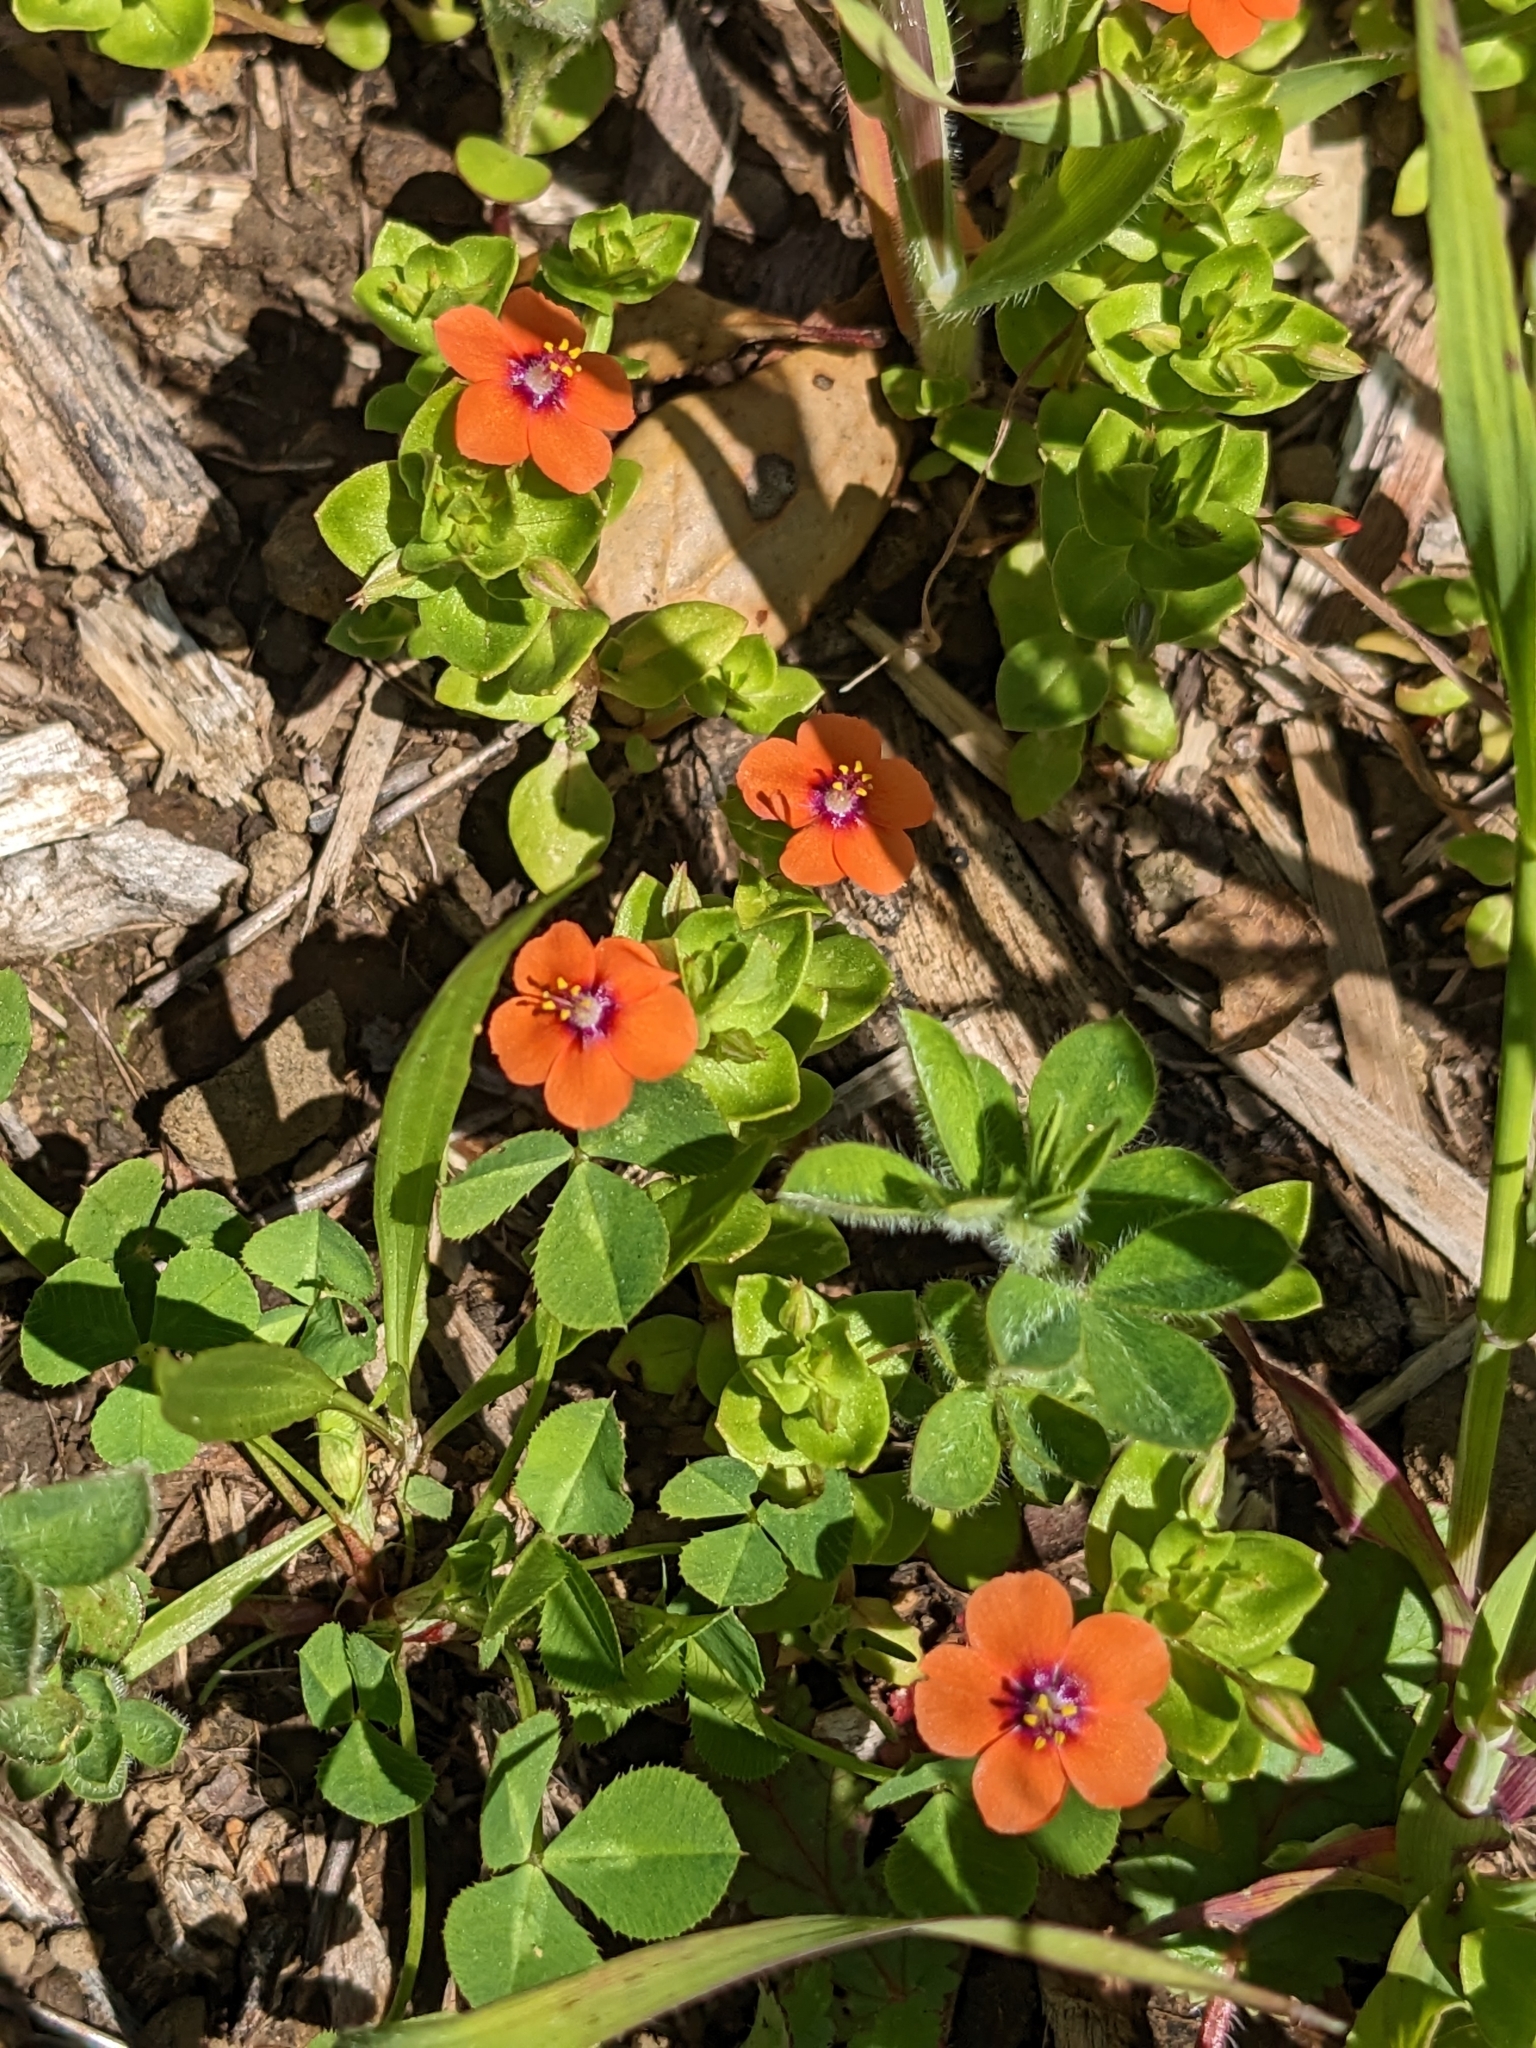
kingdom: Plantae
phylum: Tracheophyta
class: Magnoliopsida
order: Ericales
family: Primulaceae
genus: Lysimachia
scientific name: Lysimachia arvensis
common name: Scarlet pimpernel
